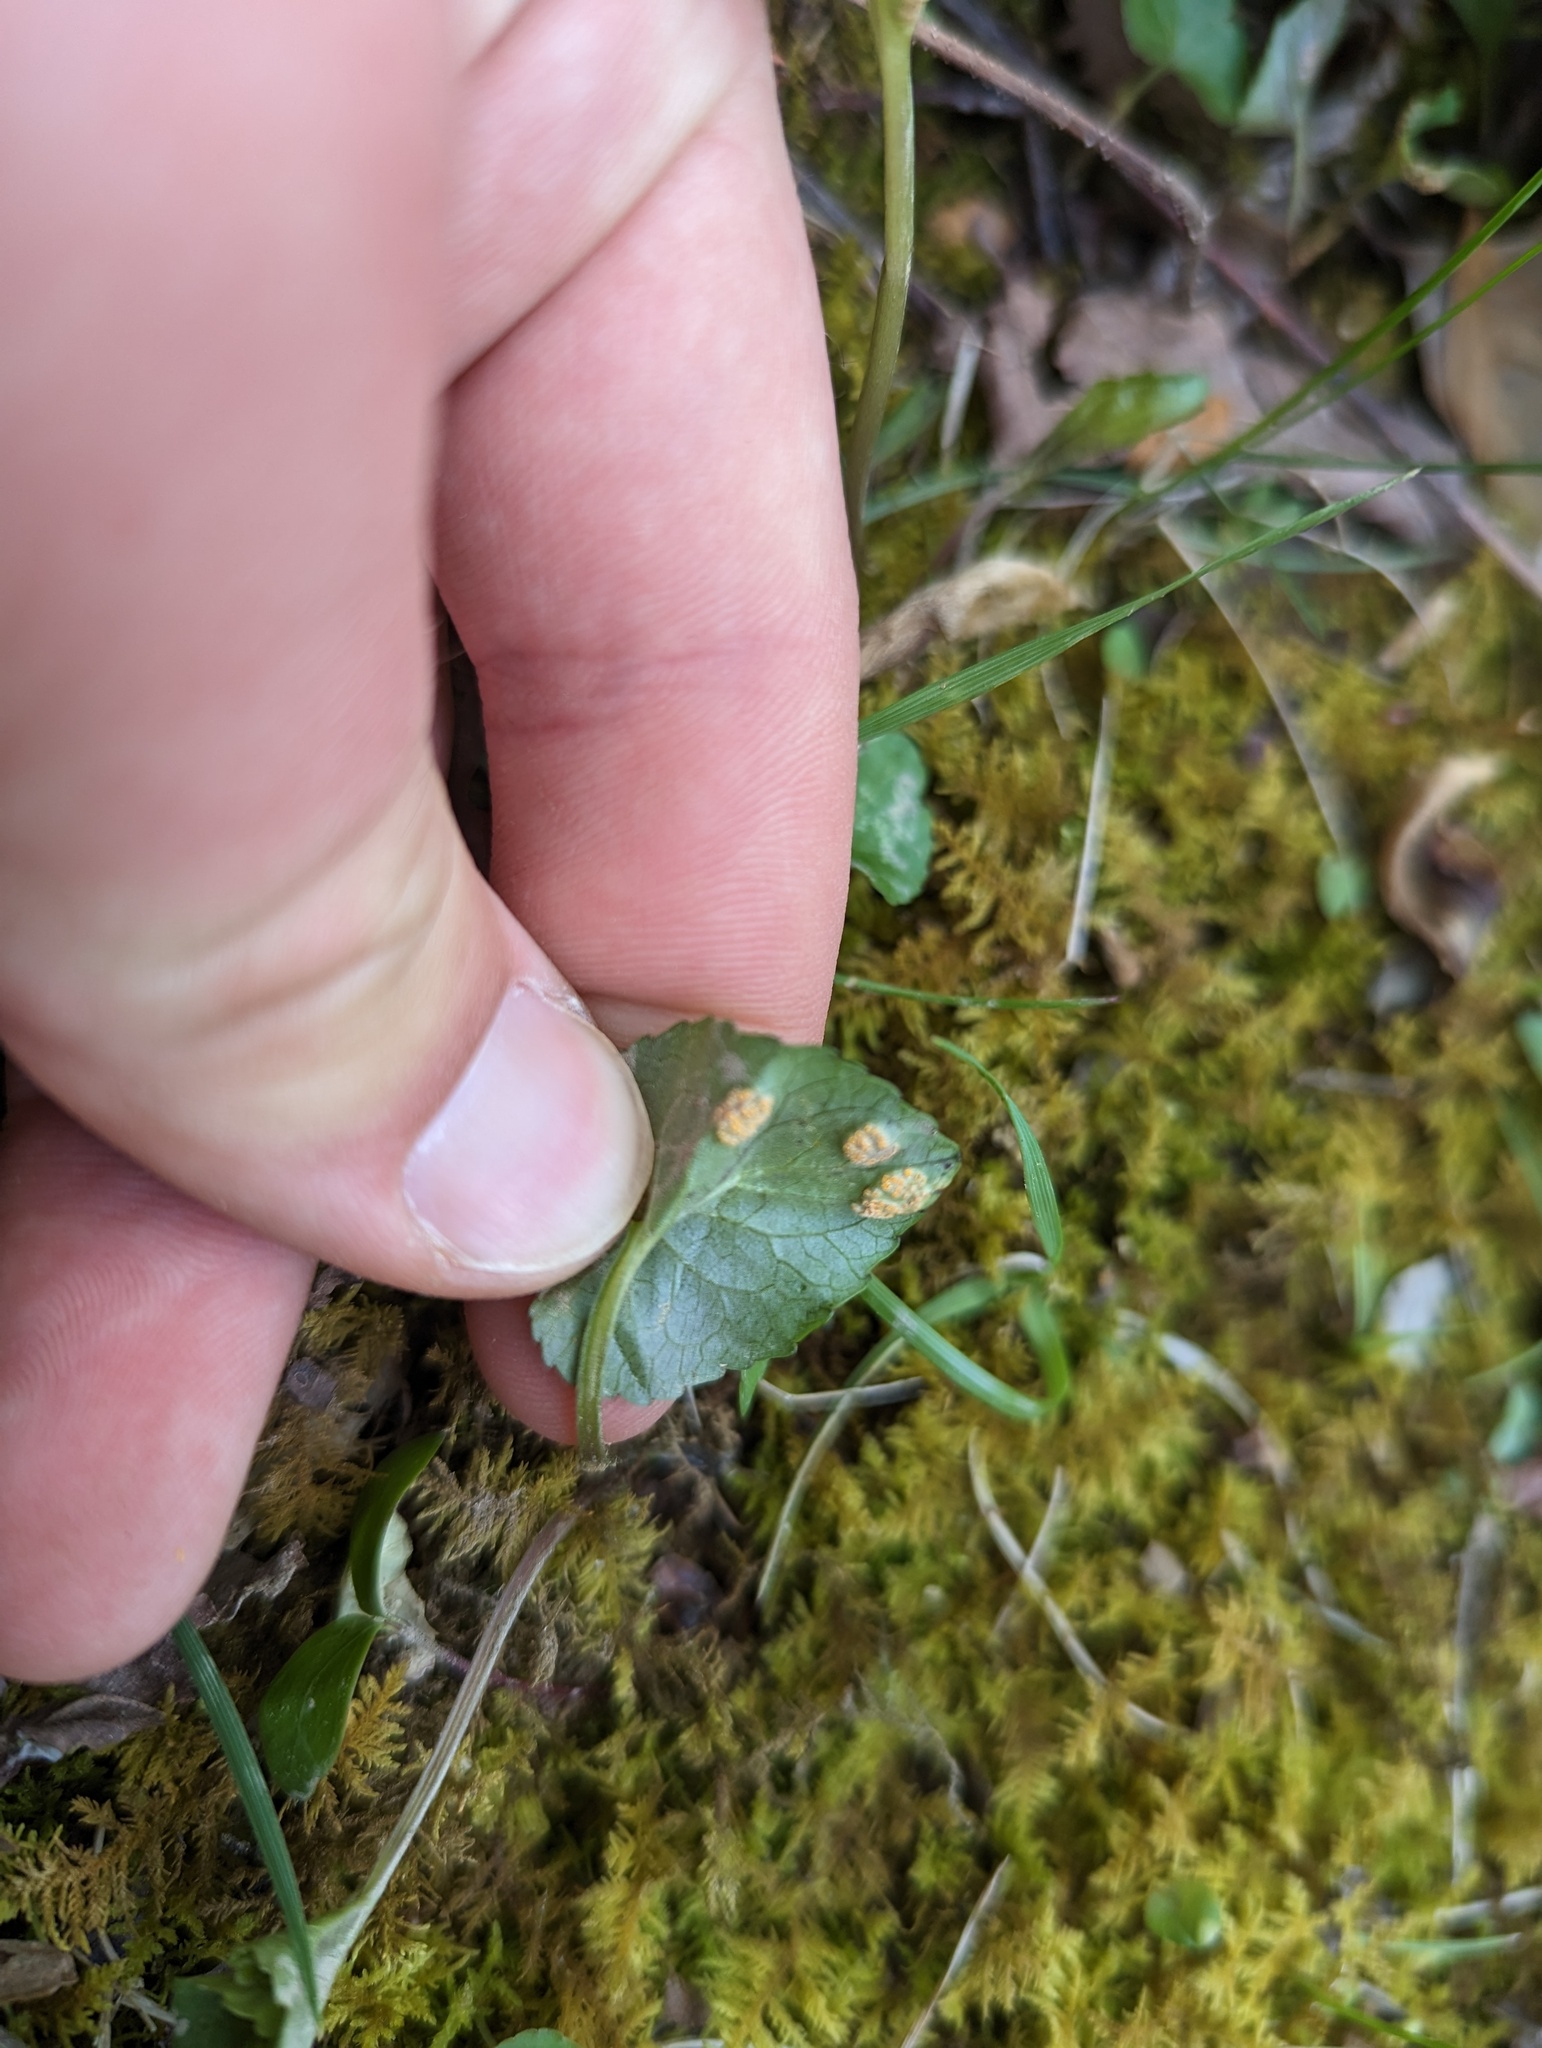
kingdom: Fungi
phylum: Basidiomycota
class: Pucciniomycetes
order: Pucciniales
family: Pucciniaceae
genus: Puccinia
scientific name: Puccinia violae
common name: Violet rust
